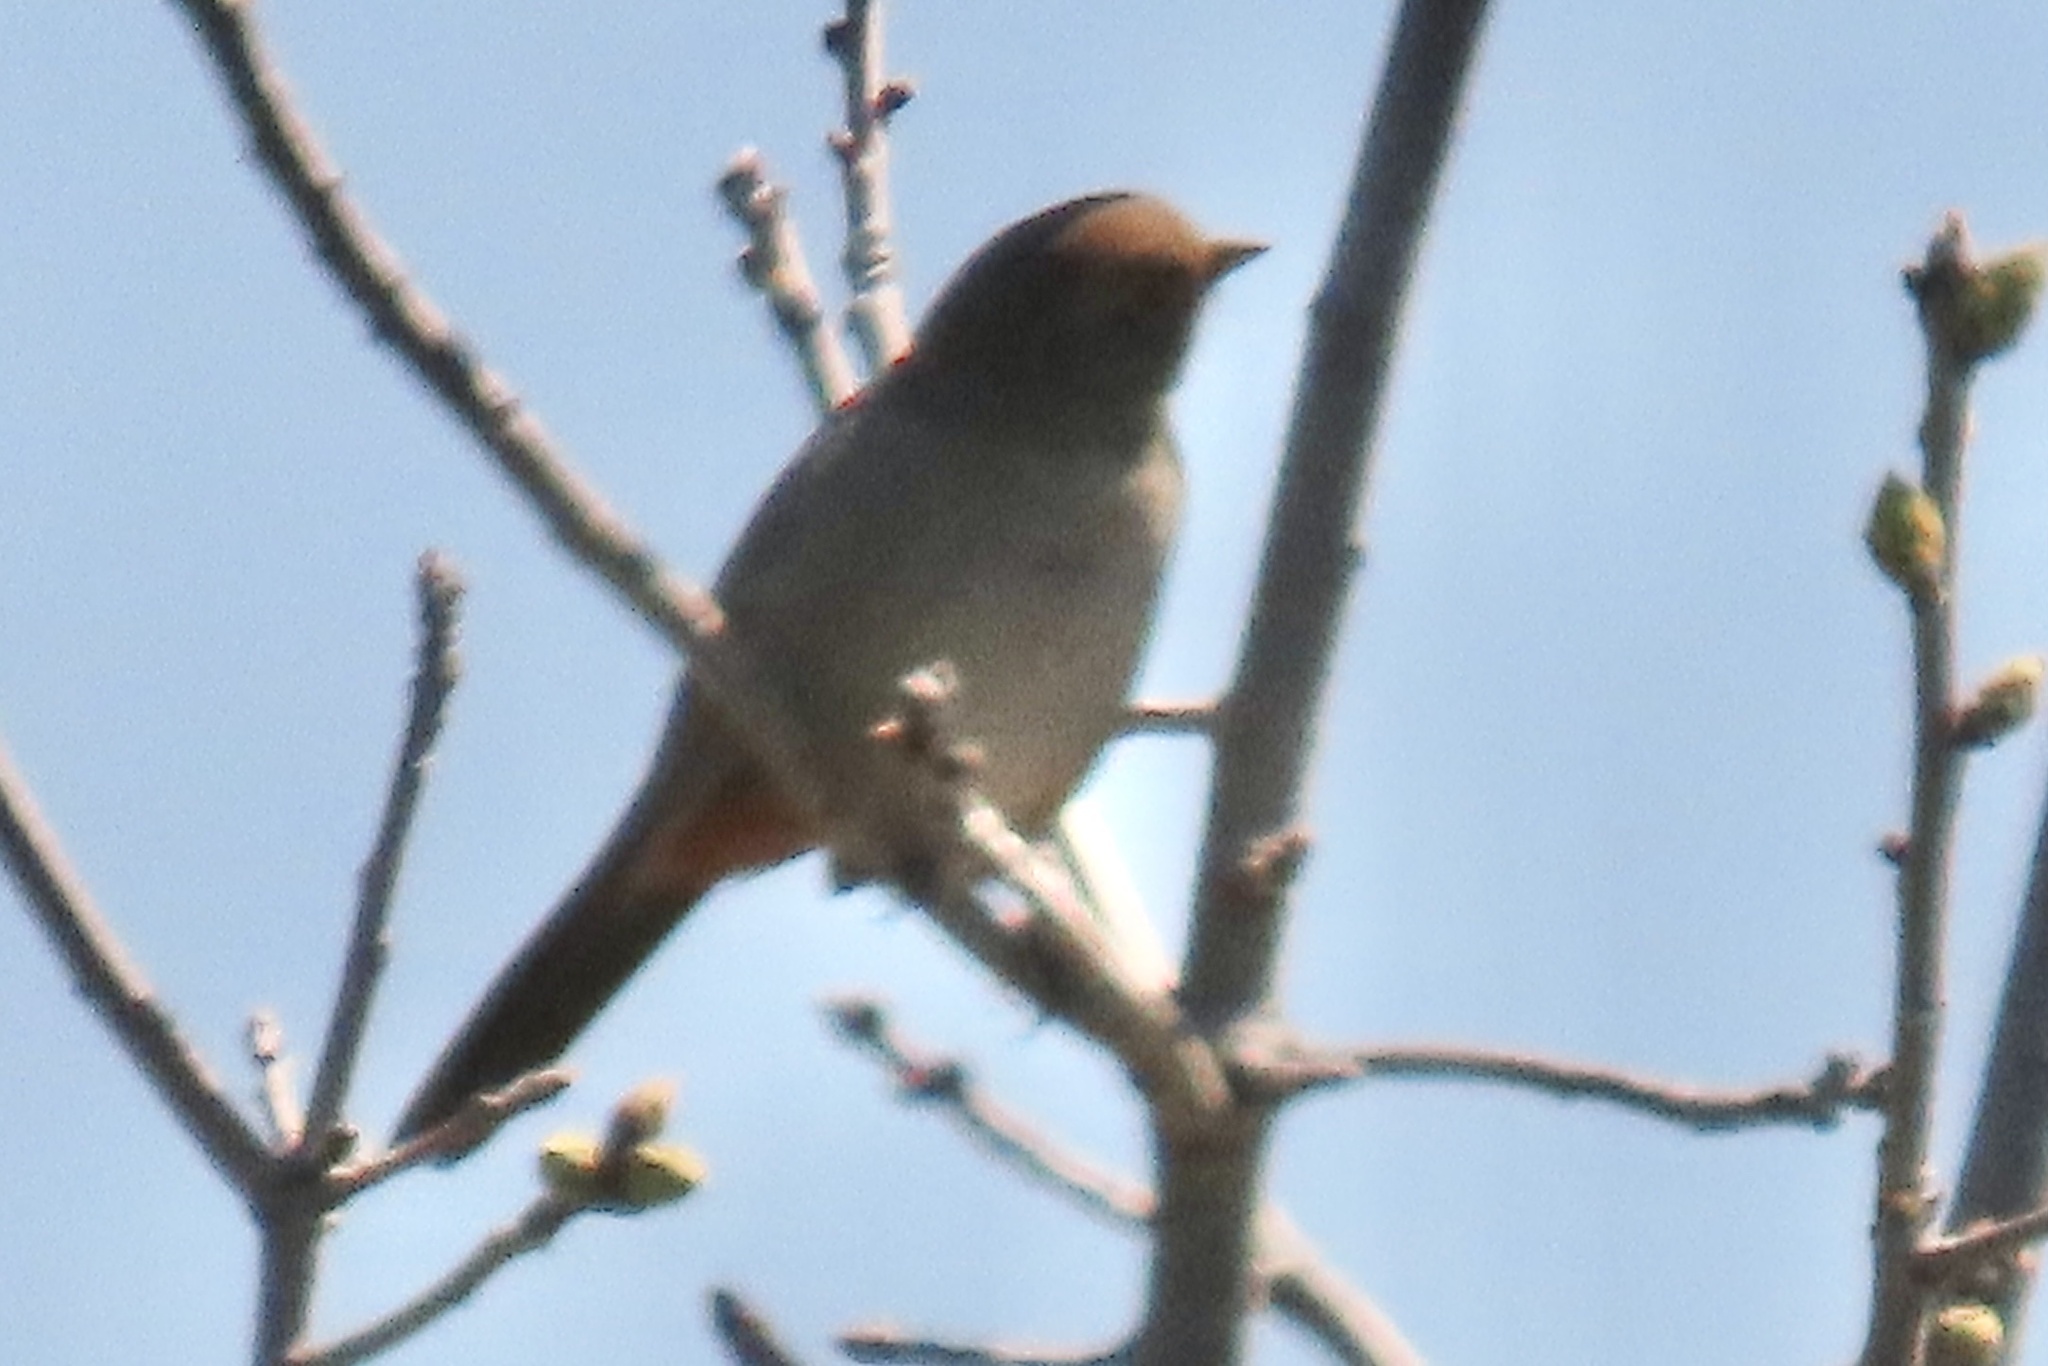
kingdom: Animalia
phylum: Chordata
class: Aves
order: Passeriformes
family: Passerellidae
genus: Melozone
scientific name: Melozone crissalis
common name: California towhee
